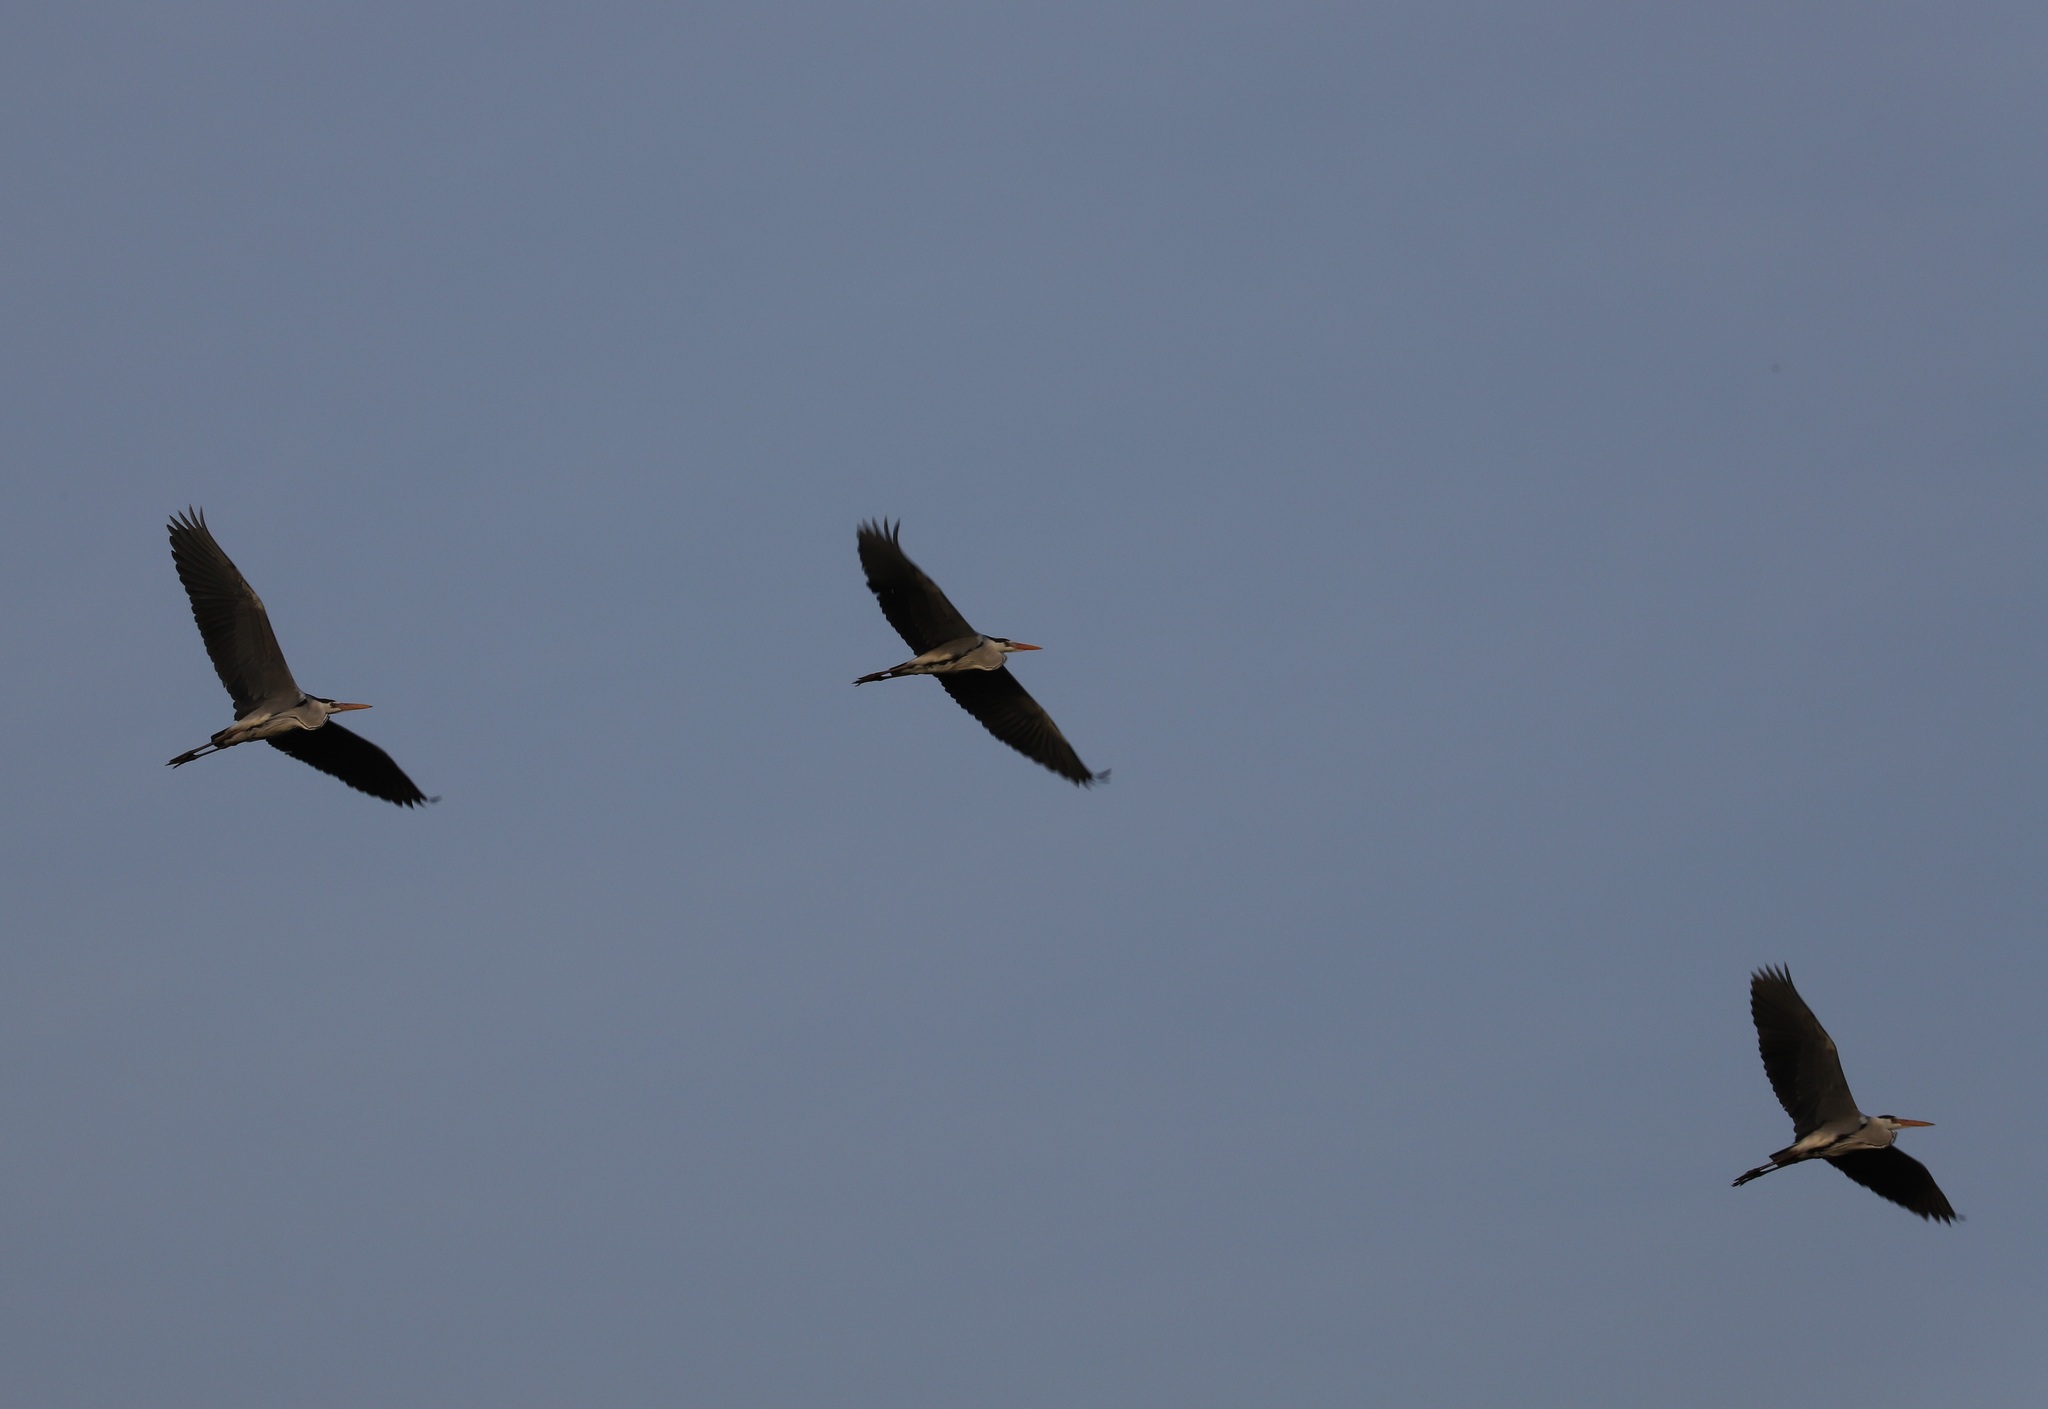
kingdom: Animalia
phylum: Chordata
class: Aves
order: Pelecaniformes
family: Ardeidae
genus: Ardea
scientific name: Ardea cinerea
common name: Grey heron
